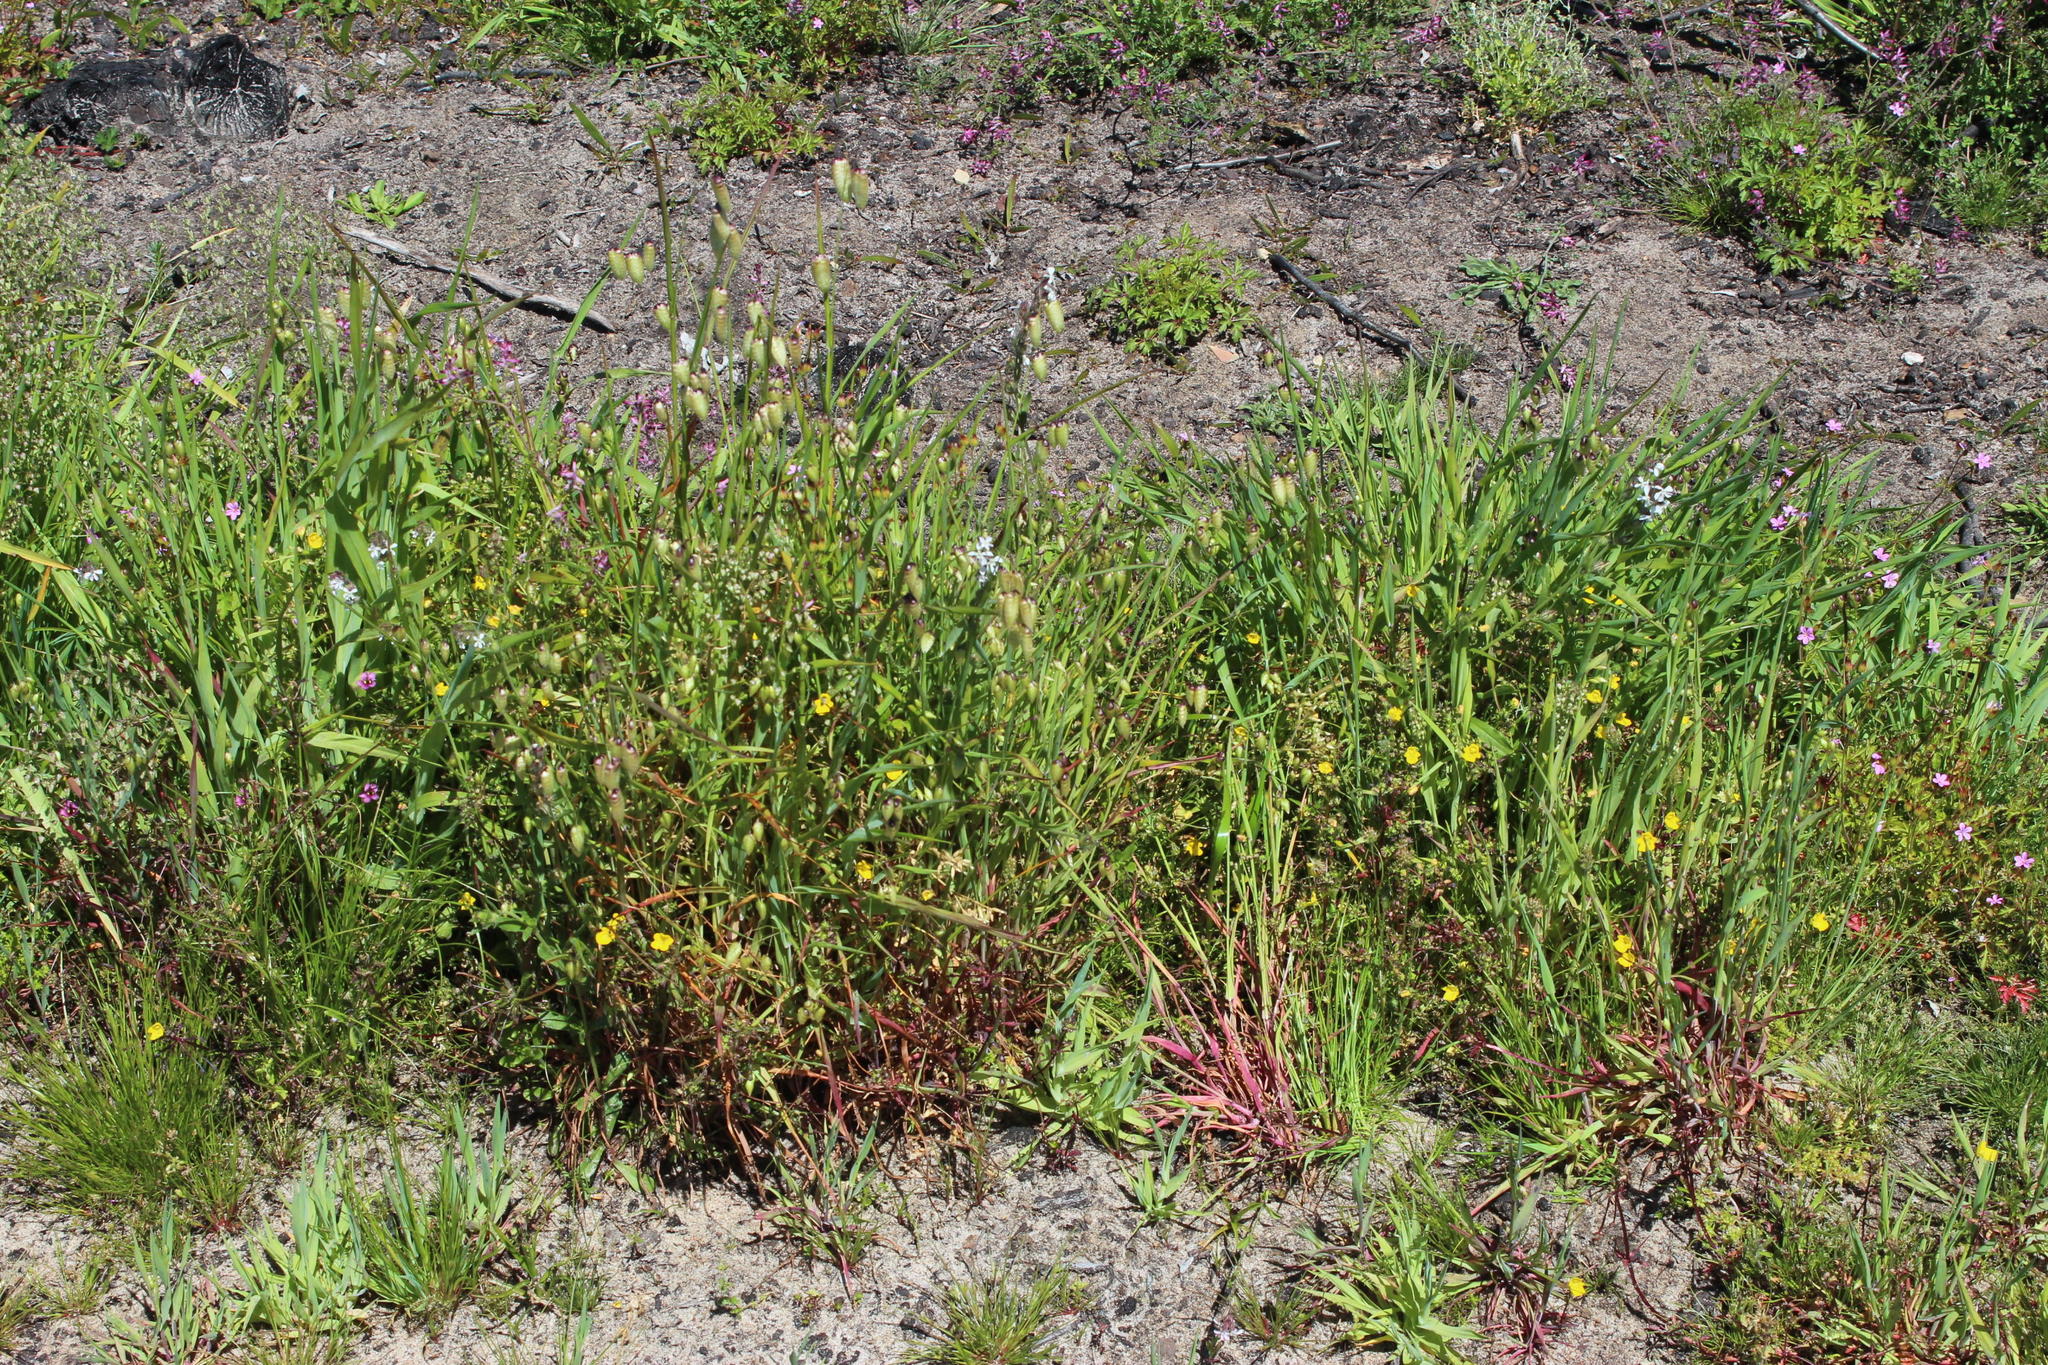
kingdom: Plantae
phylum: Tracheophyta
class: Magnoliopsida
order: Caryophyllales
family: Caryophyllaceae
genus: Silene
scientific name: Silene gallica
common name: Small-flowered catchfly
